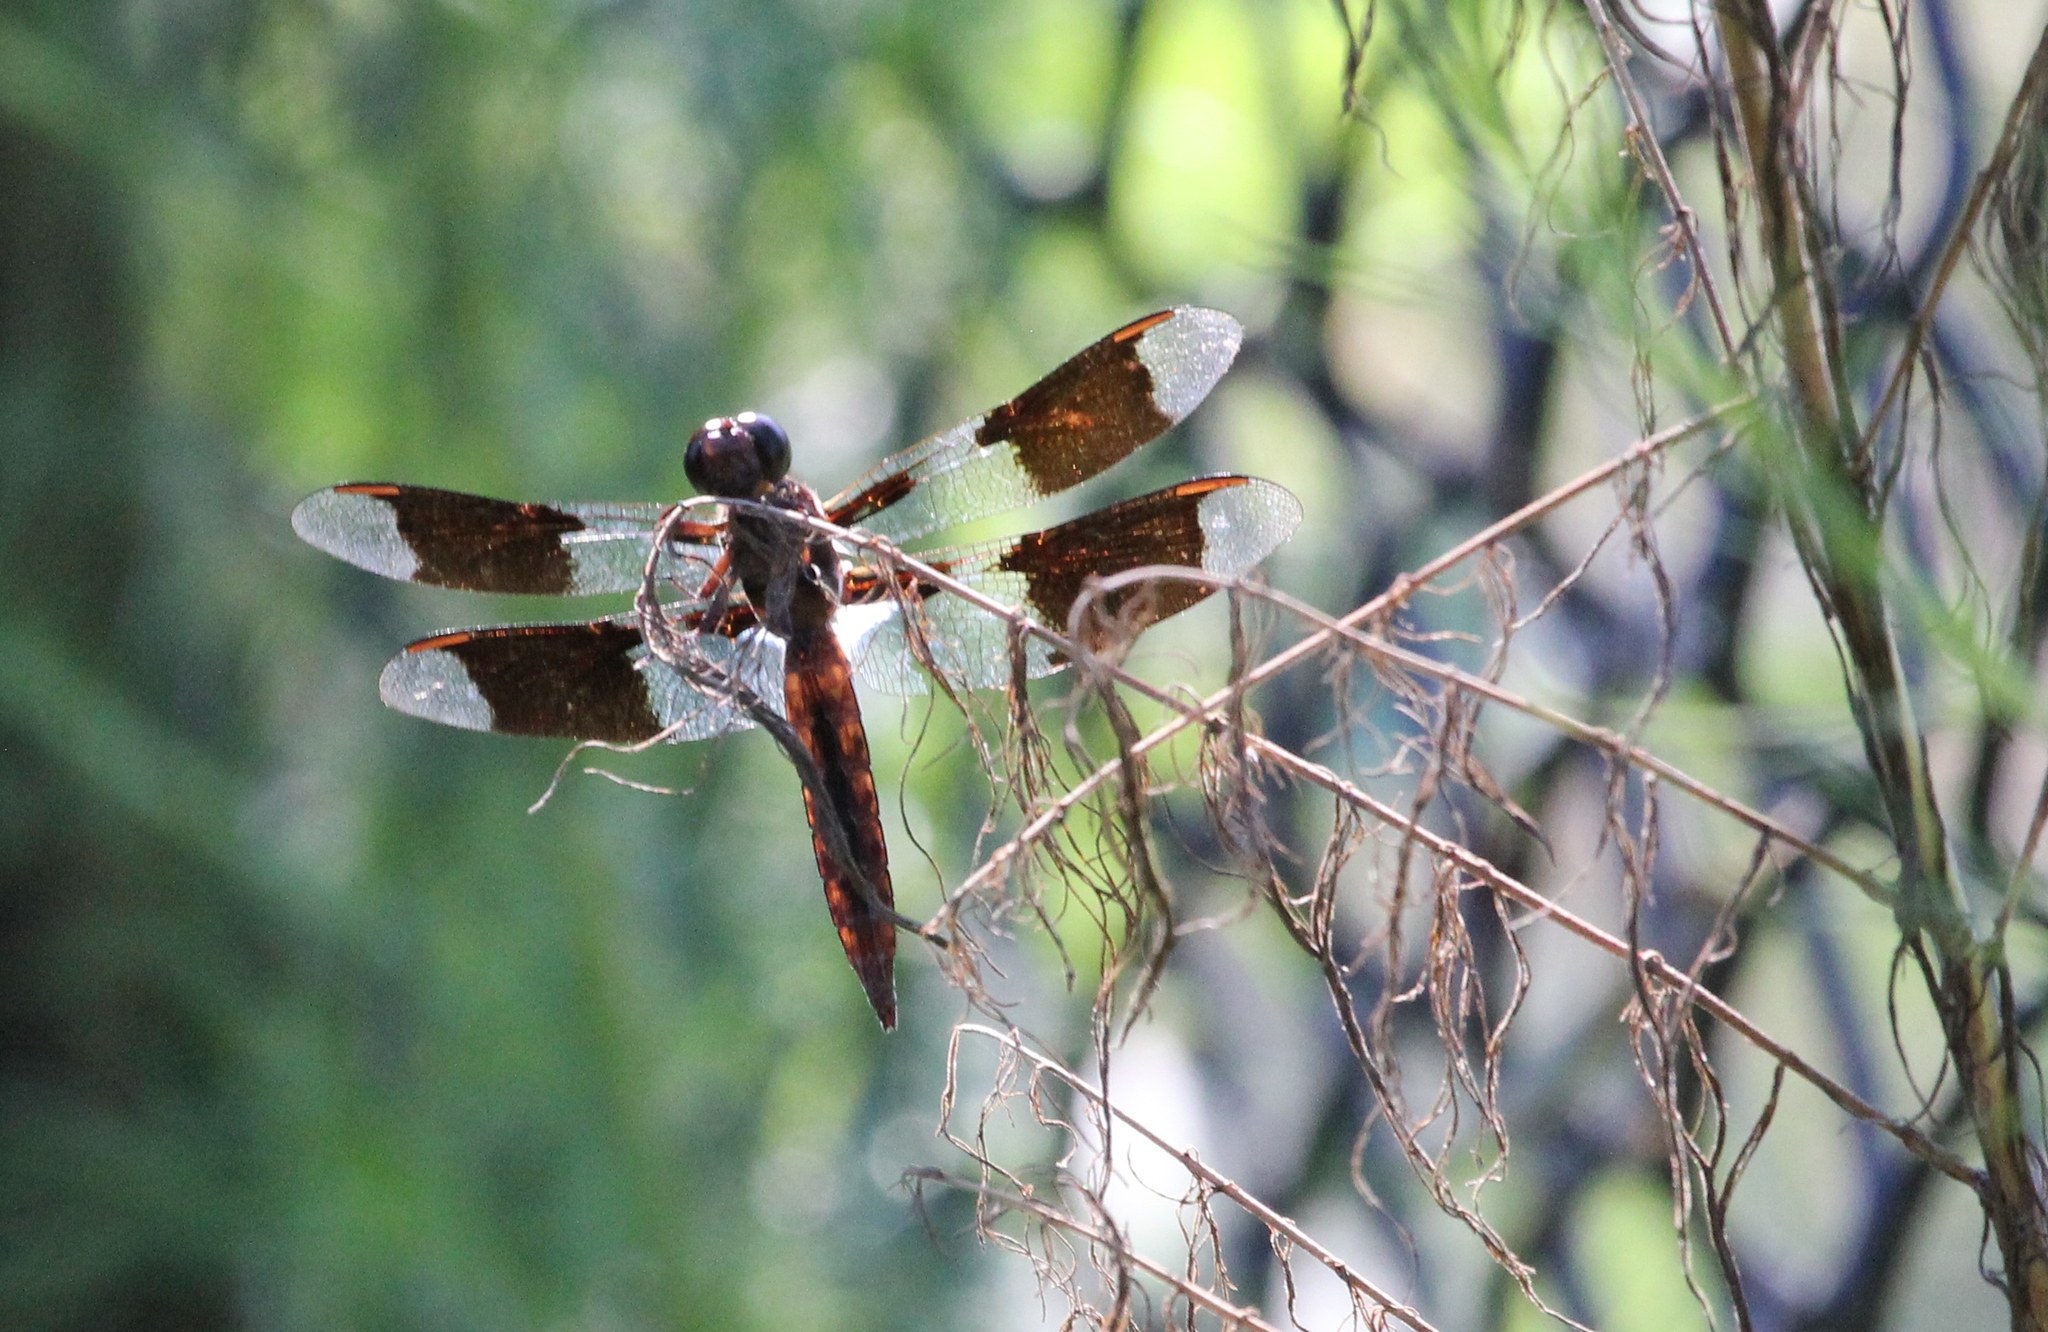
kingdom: Animalia
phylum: Arthropoda
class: Insecta
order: Odonata
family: Libellulidae
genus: Plathemis
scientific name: Plathemis lydia
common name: Common whitetail
